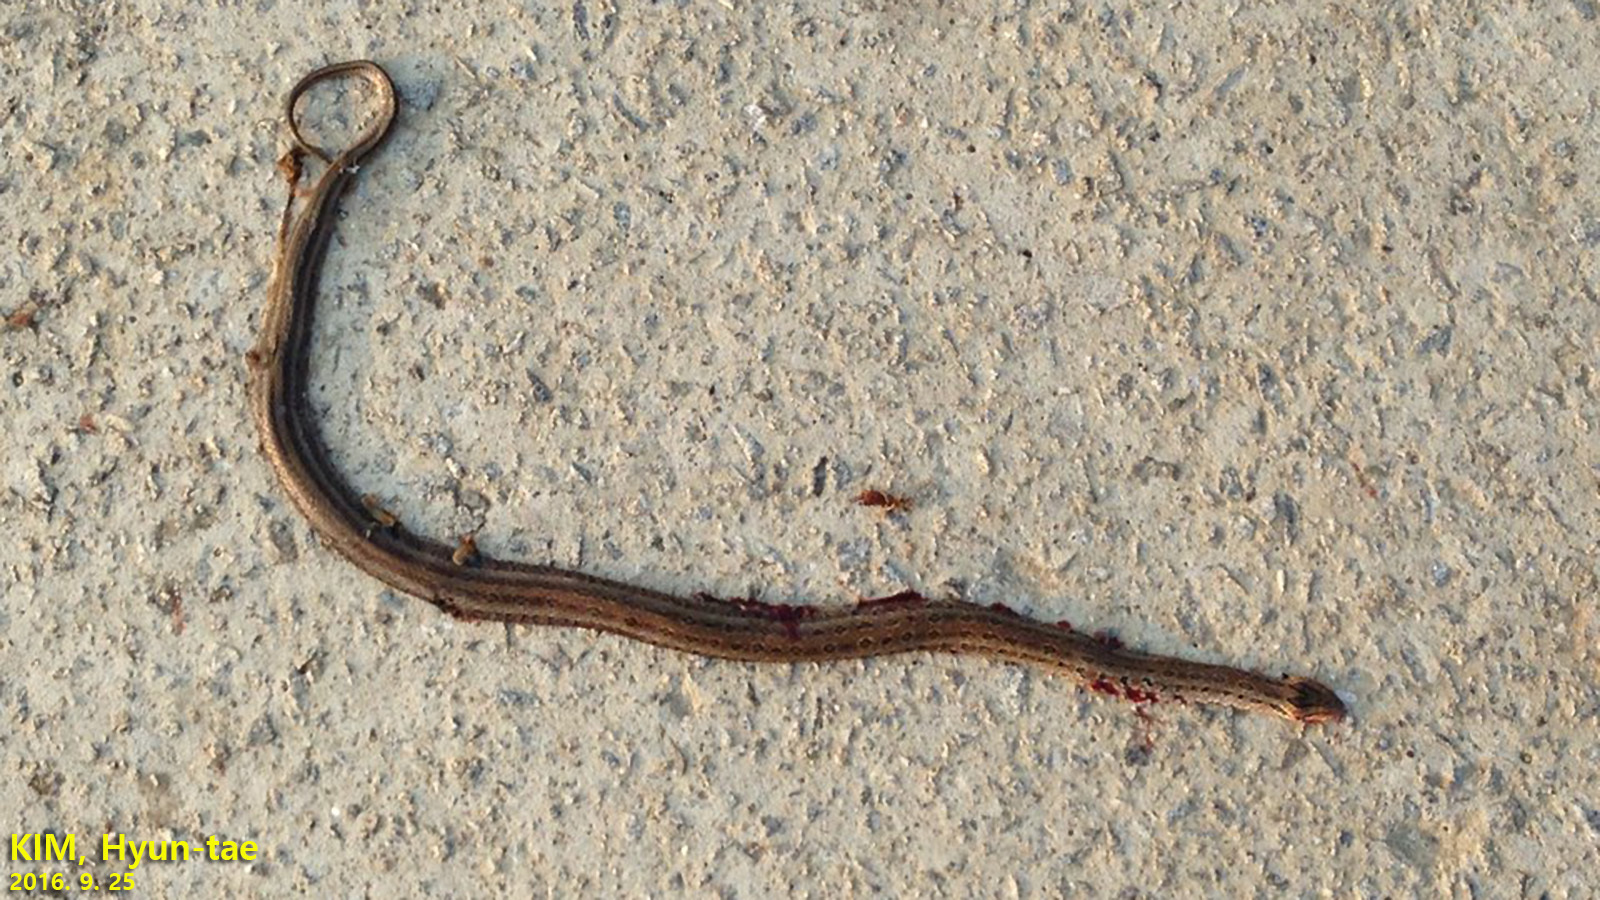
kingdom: Animalia
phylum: Chordata
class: Squamata
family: Colubridae
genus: Oocatochus
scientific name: Oocatochus rufodorsatus
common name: Frog-eating rat snake
